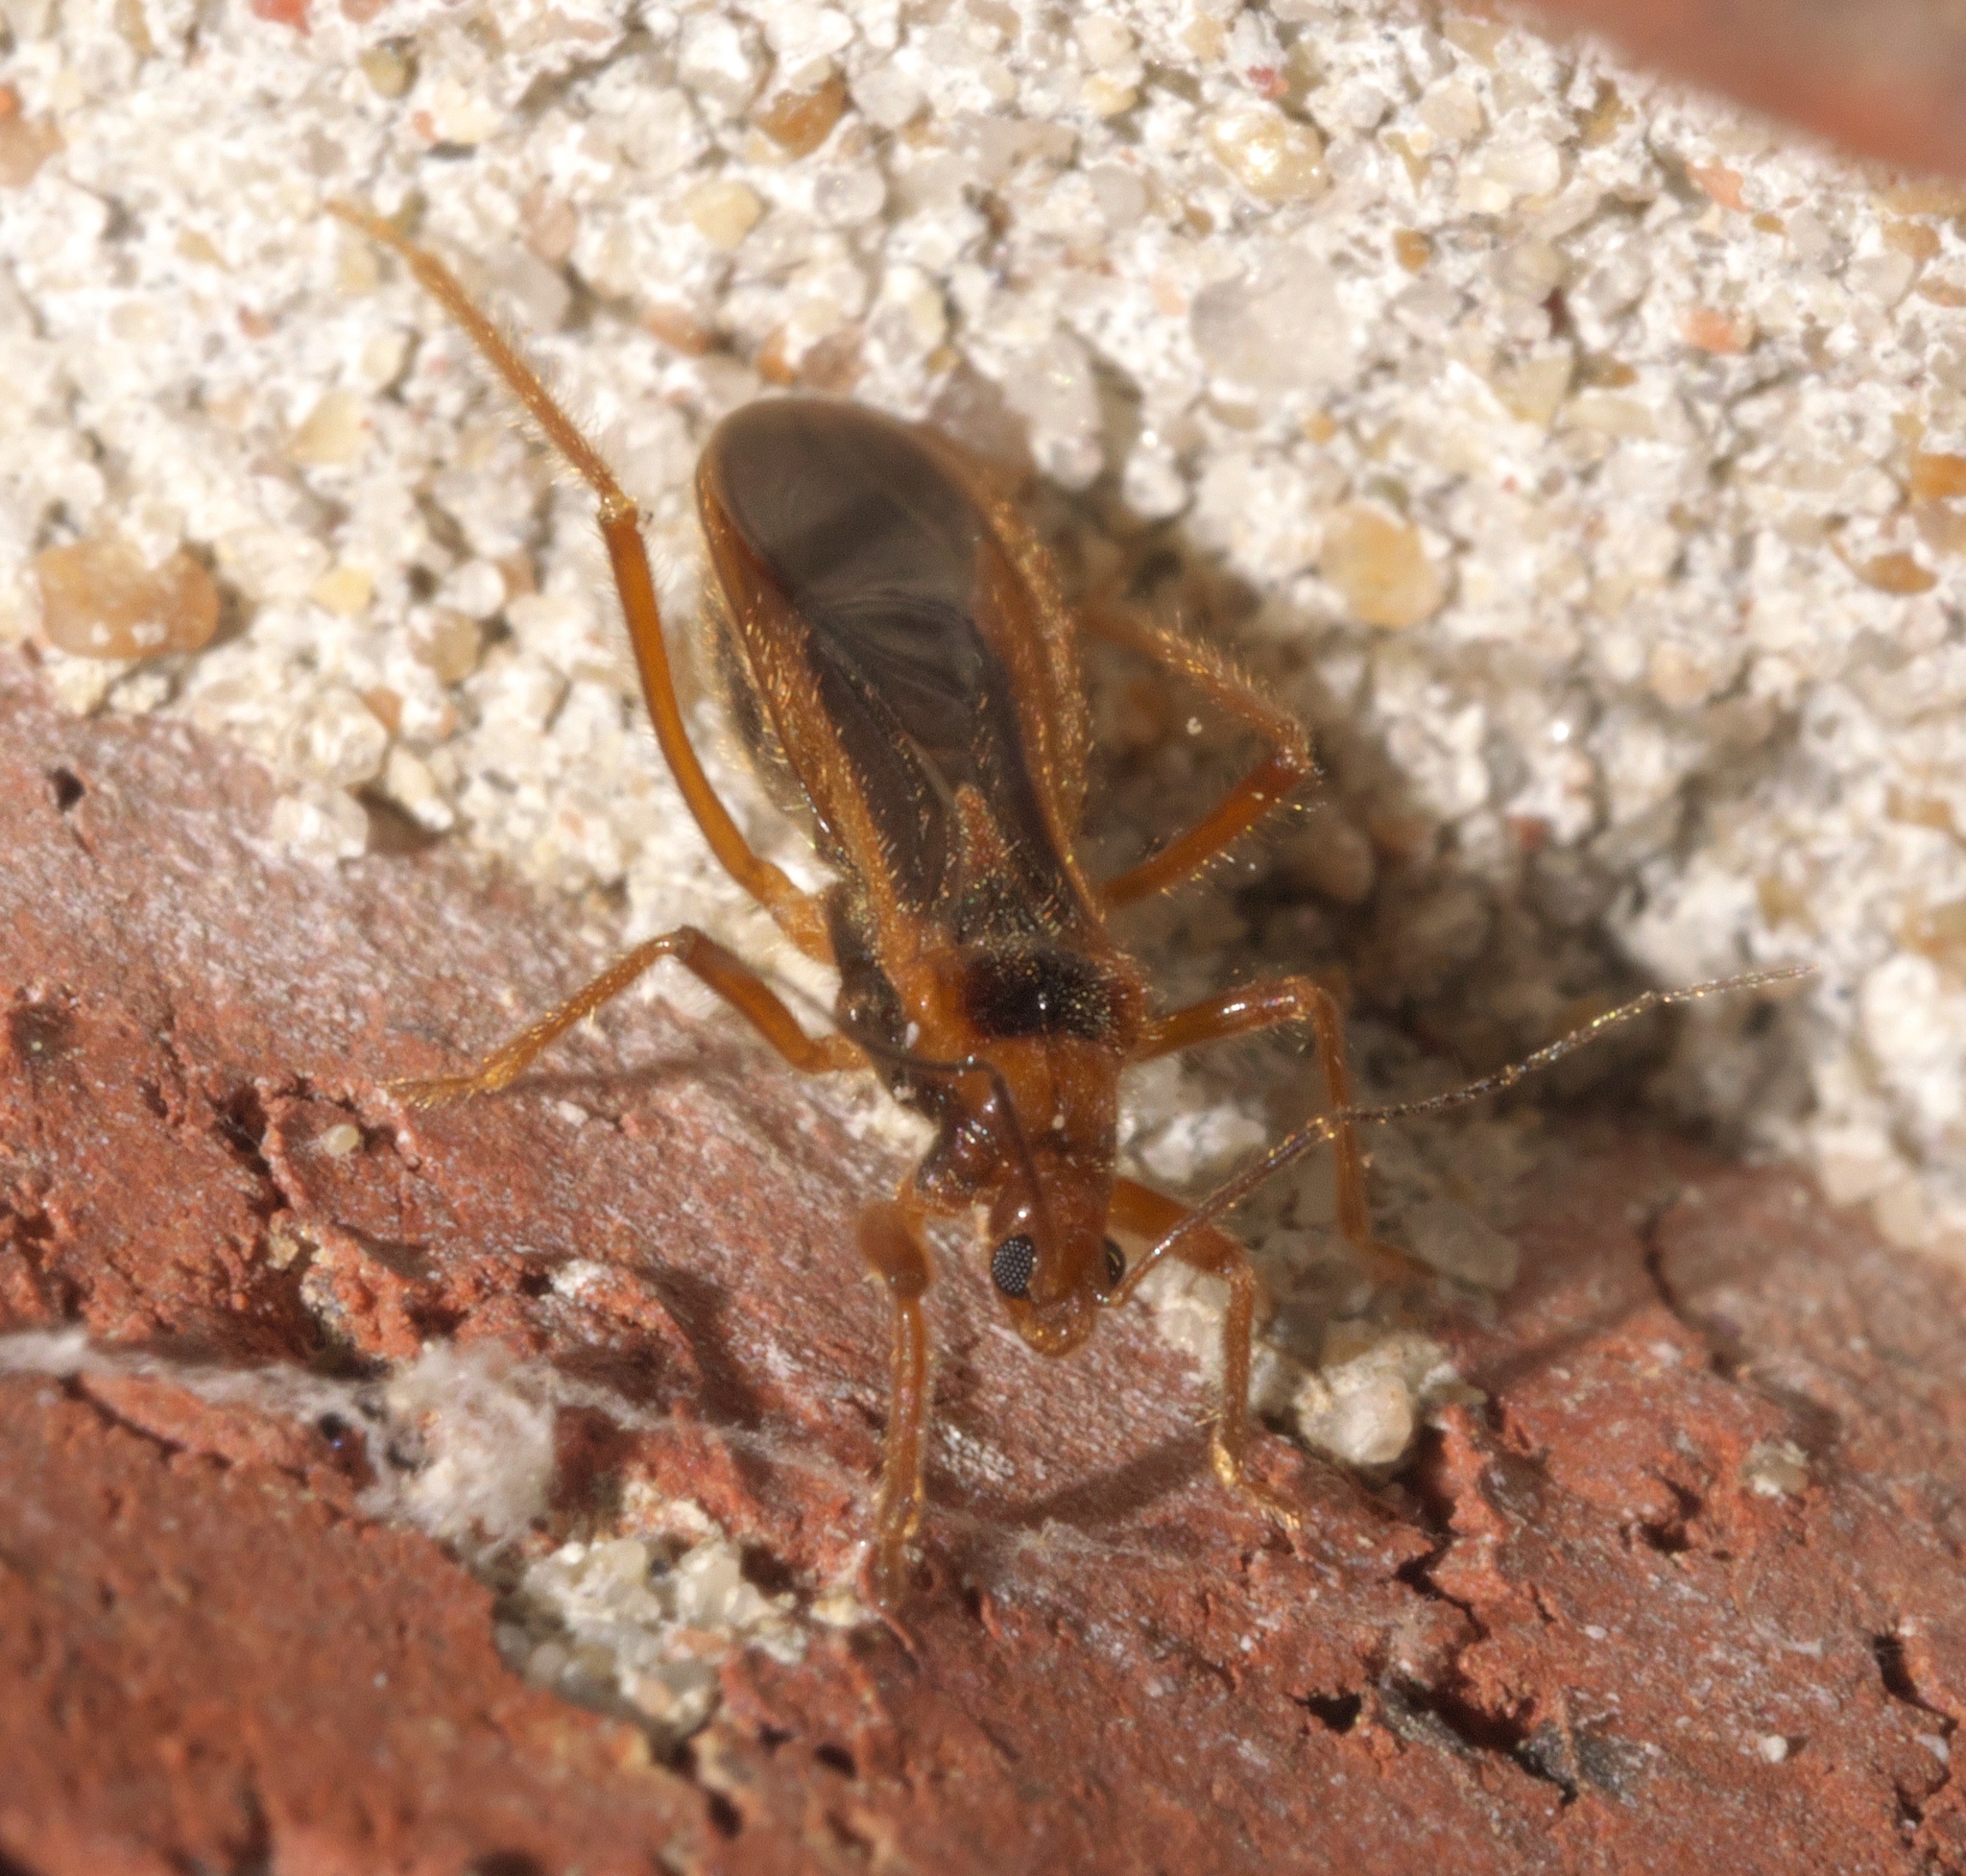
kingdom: Animalia
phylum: Arthropoda
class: Insecta
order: Hemiptera
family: Reduviidae
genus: Oncerotrachelus
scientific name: Oncerotrachelus acuminatus
